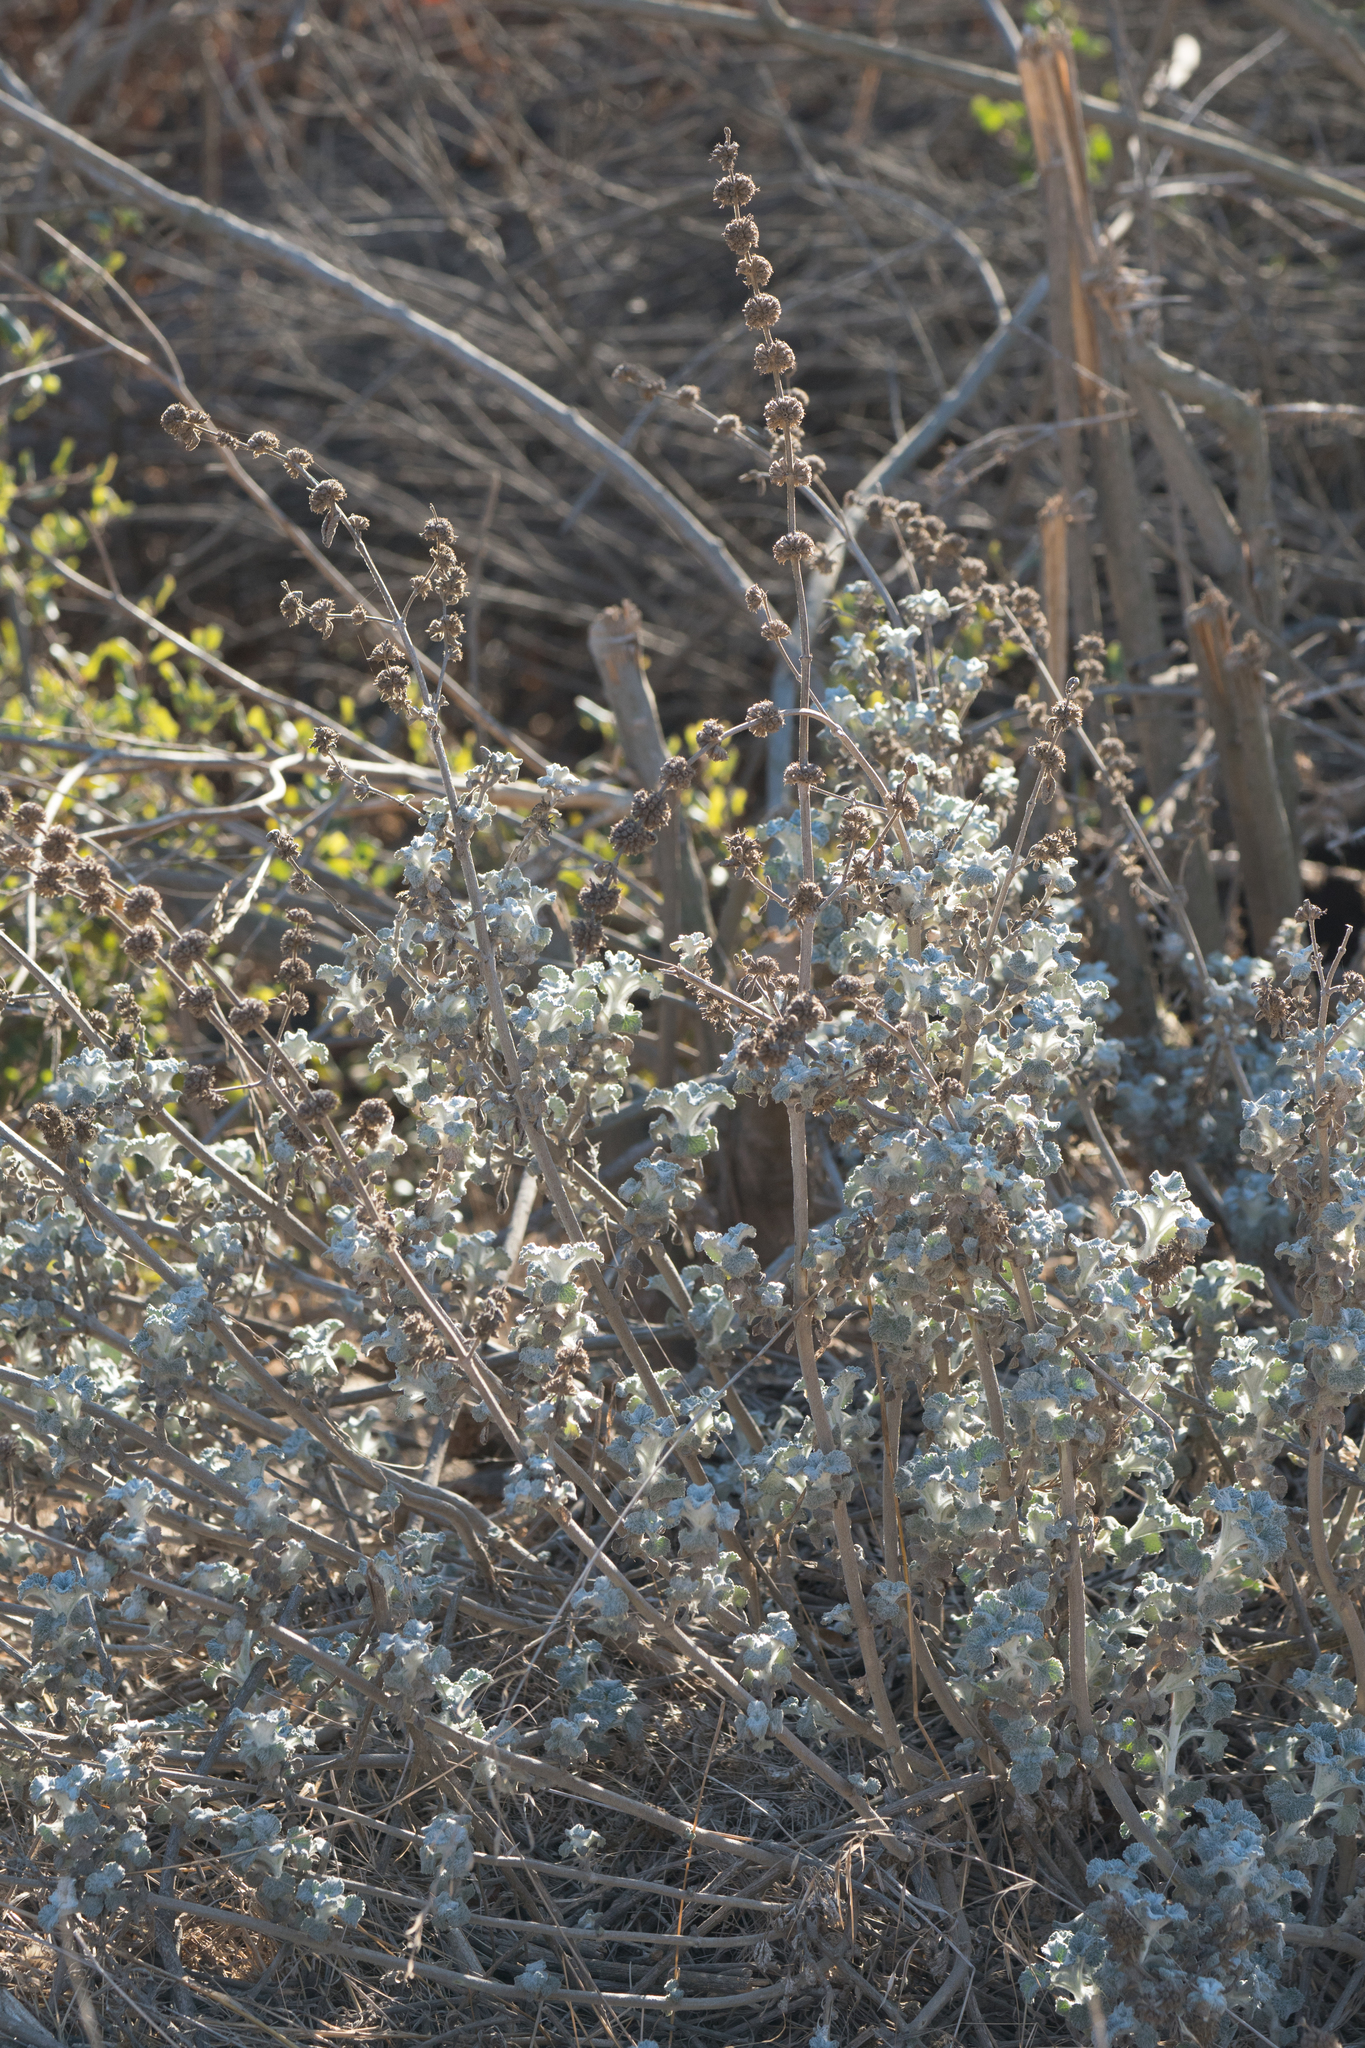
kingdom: Plantae
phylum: Tracheophyta
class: Magnoliopsida
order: Lamiales
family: Lamiaceae
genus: Marrubium
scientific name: Marrubium vulgare
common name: Horehound
